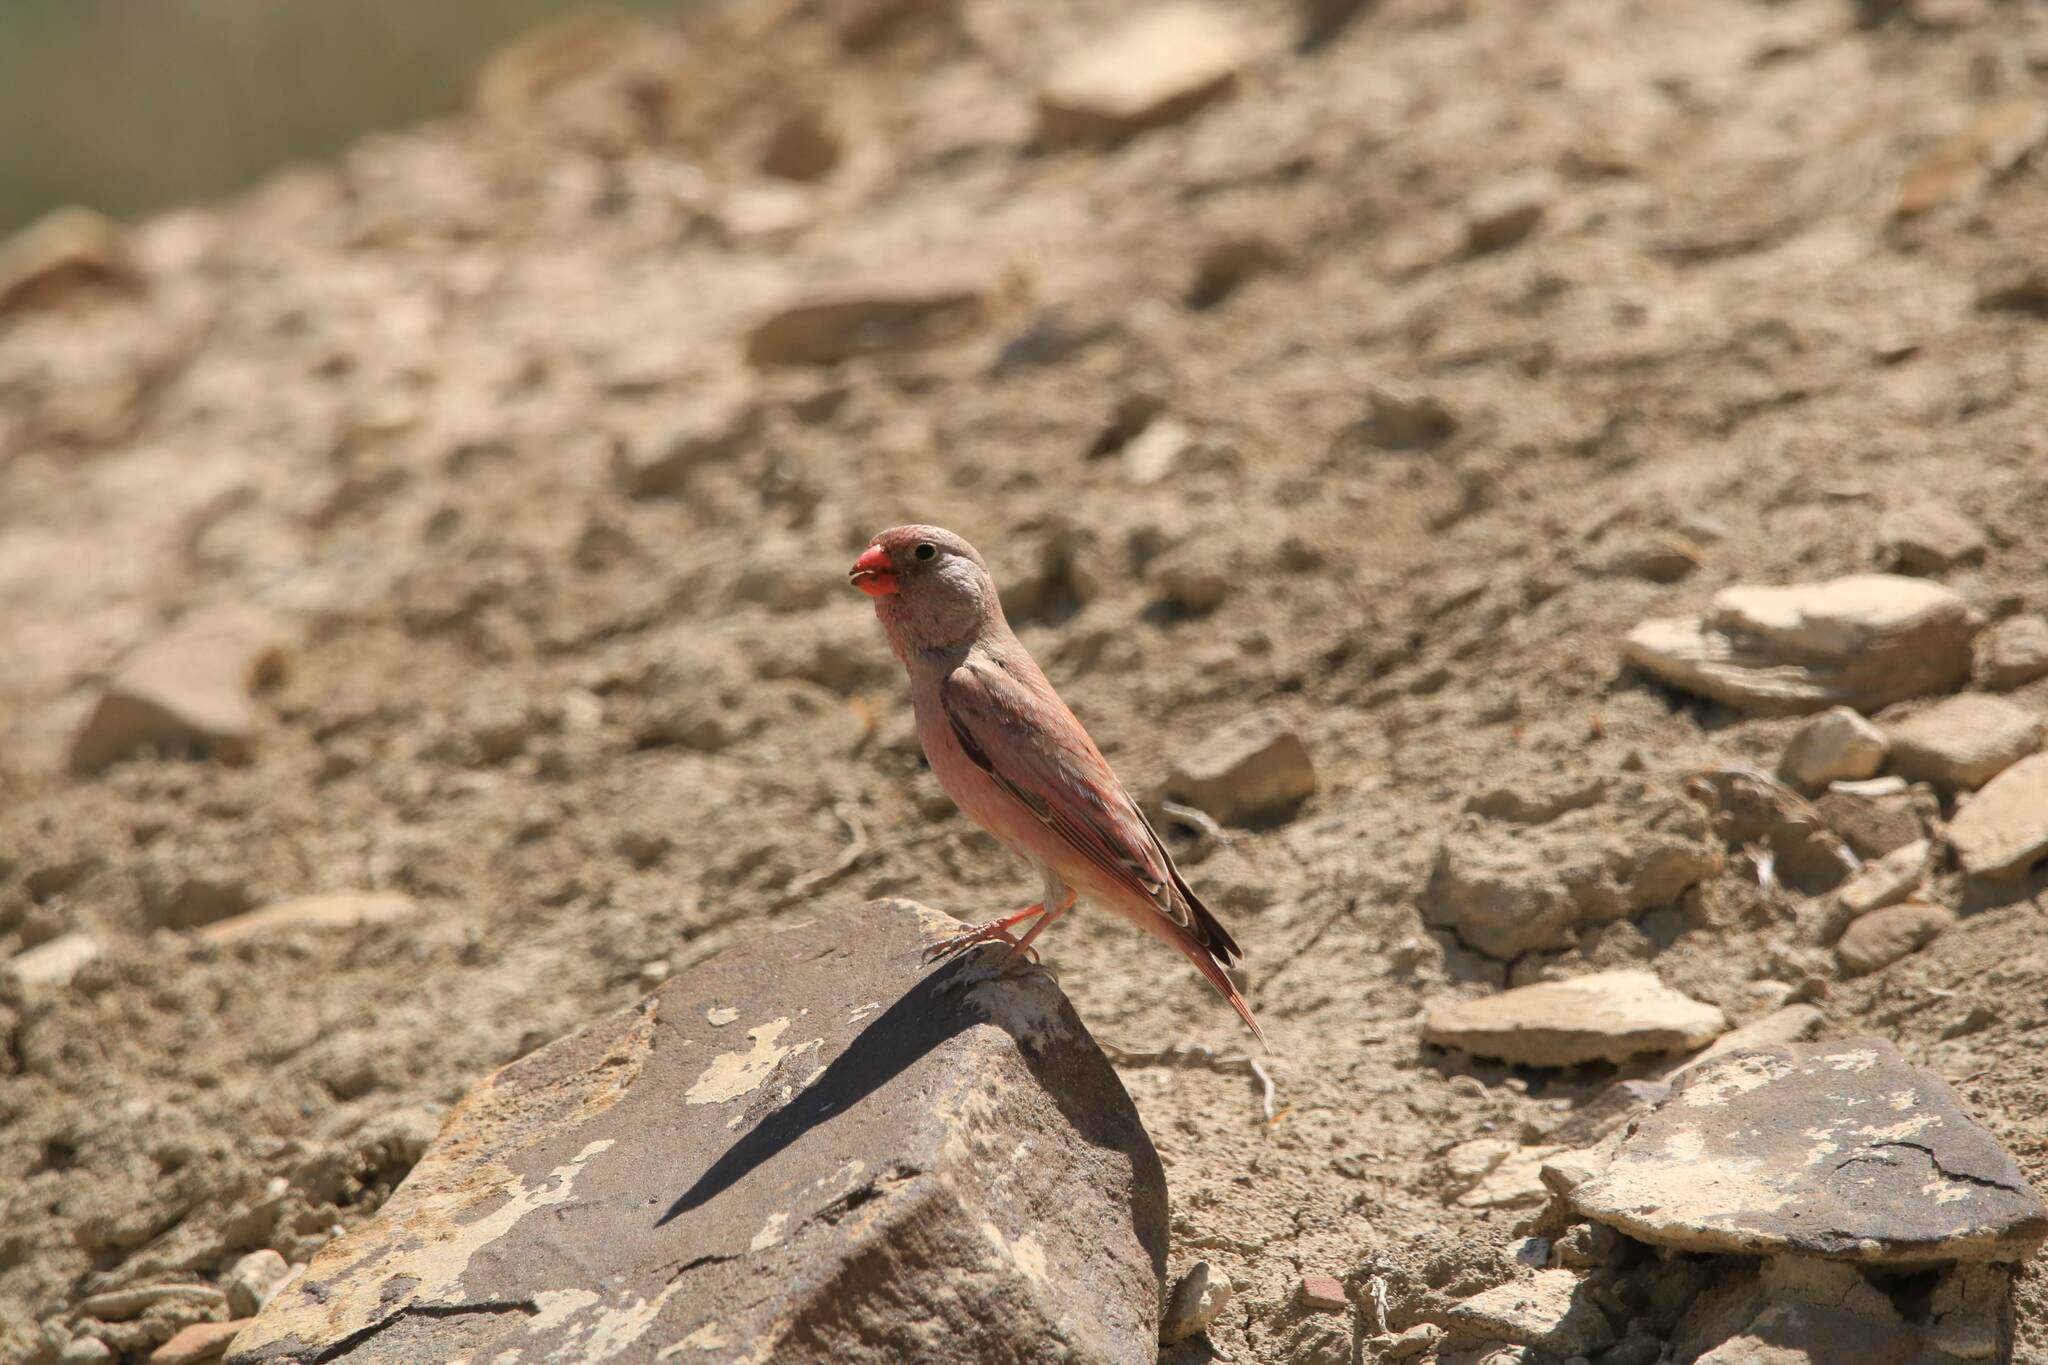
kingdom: Animalia
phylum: Chordata
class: Aves
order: Passeriformes
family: Fringillidae
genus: Bucanetes
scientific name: Bucanetes githagineus
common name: Trumpeter finch
